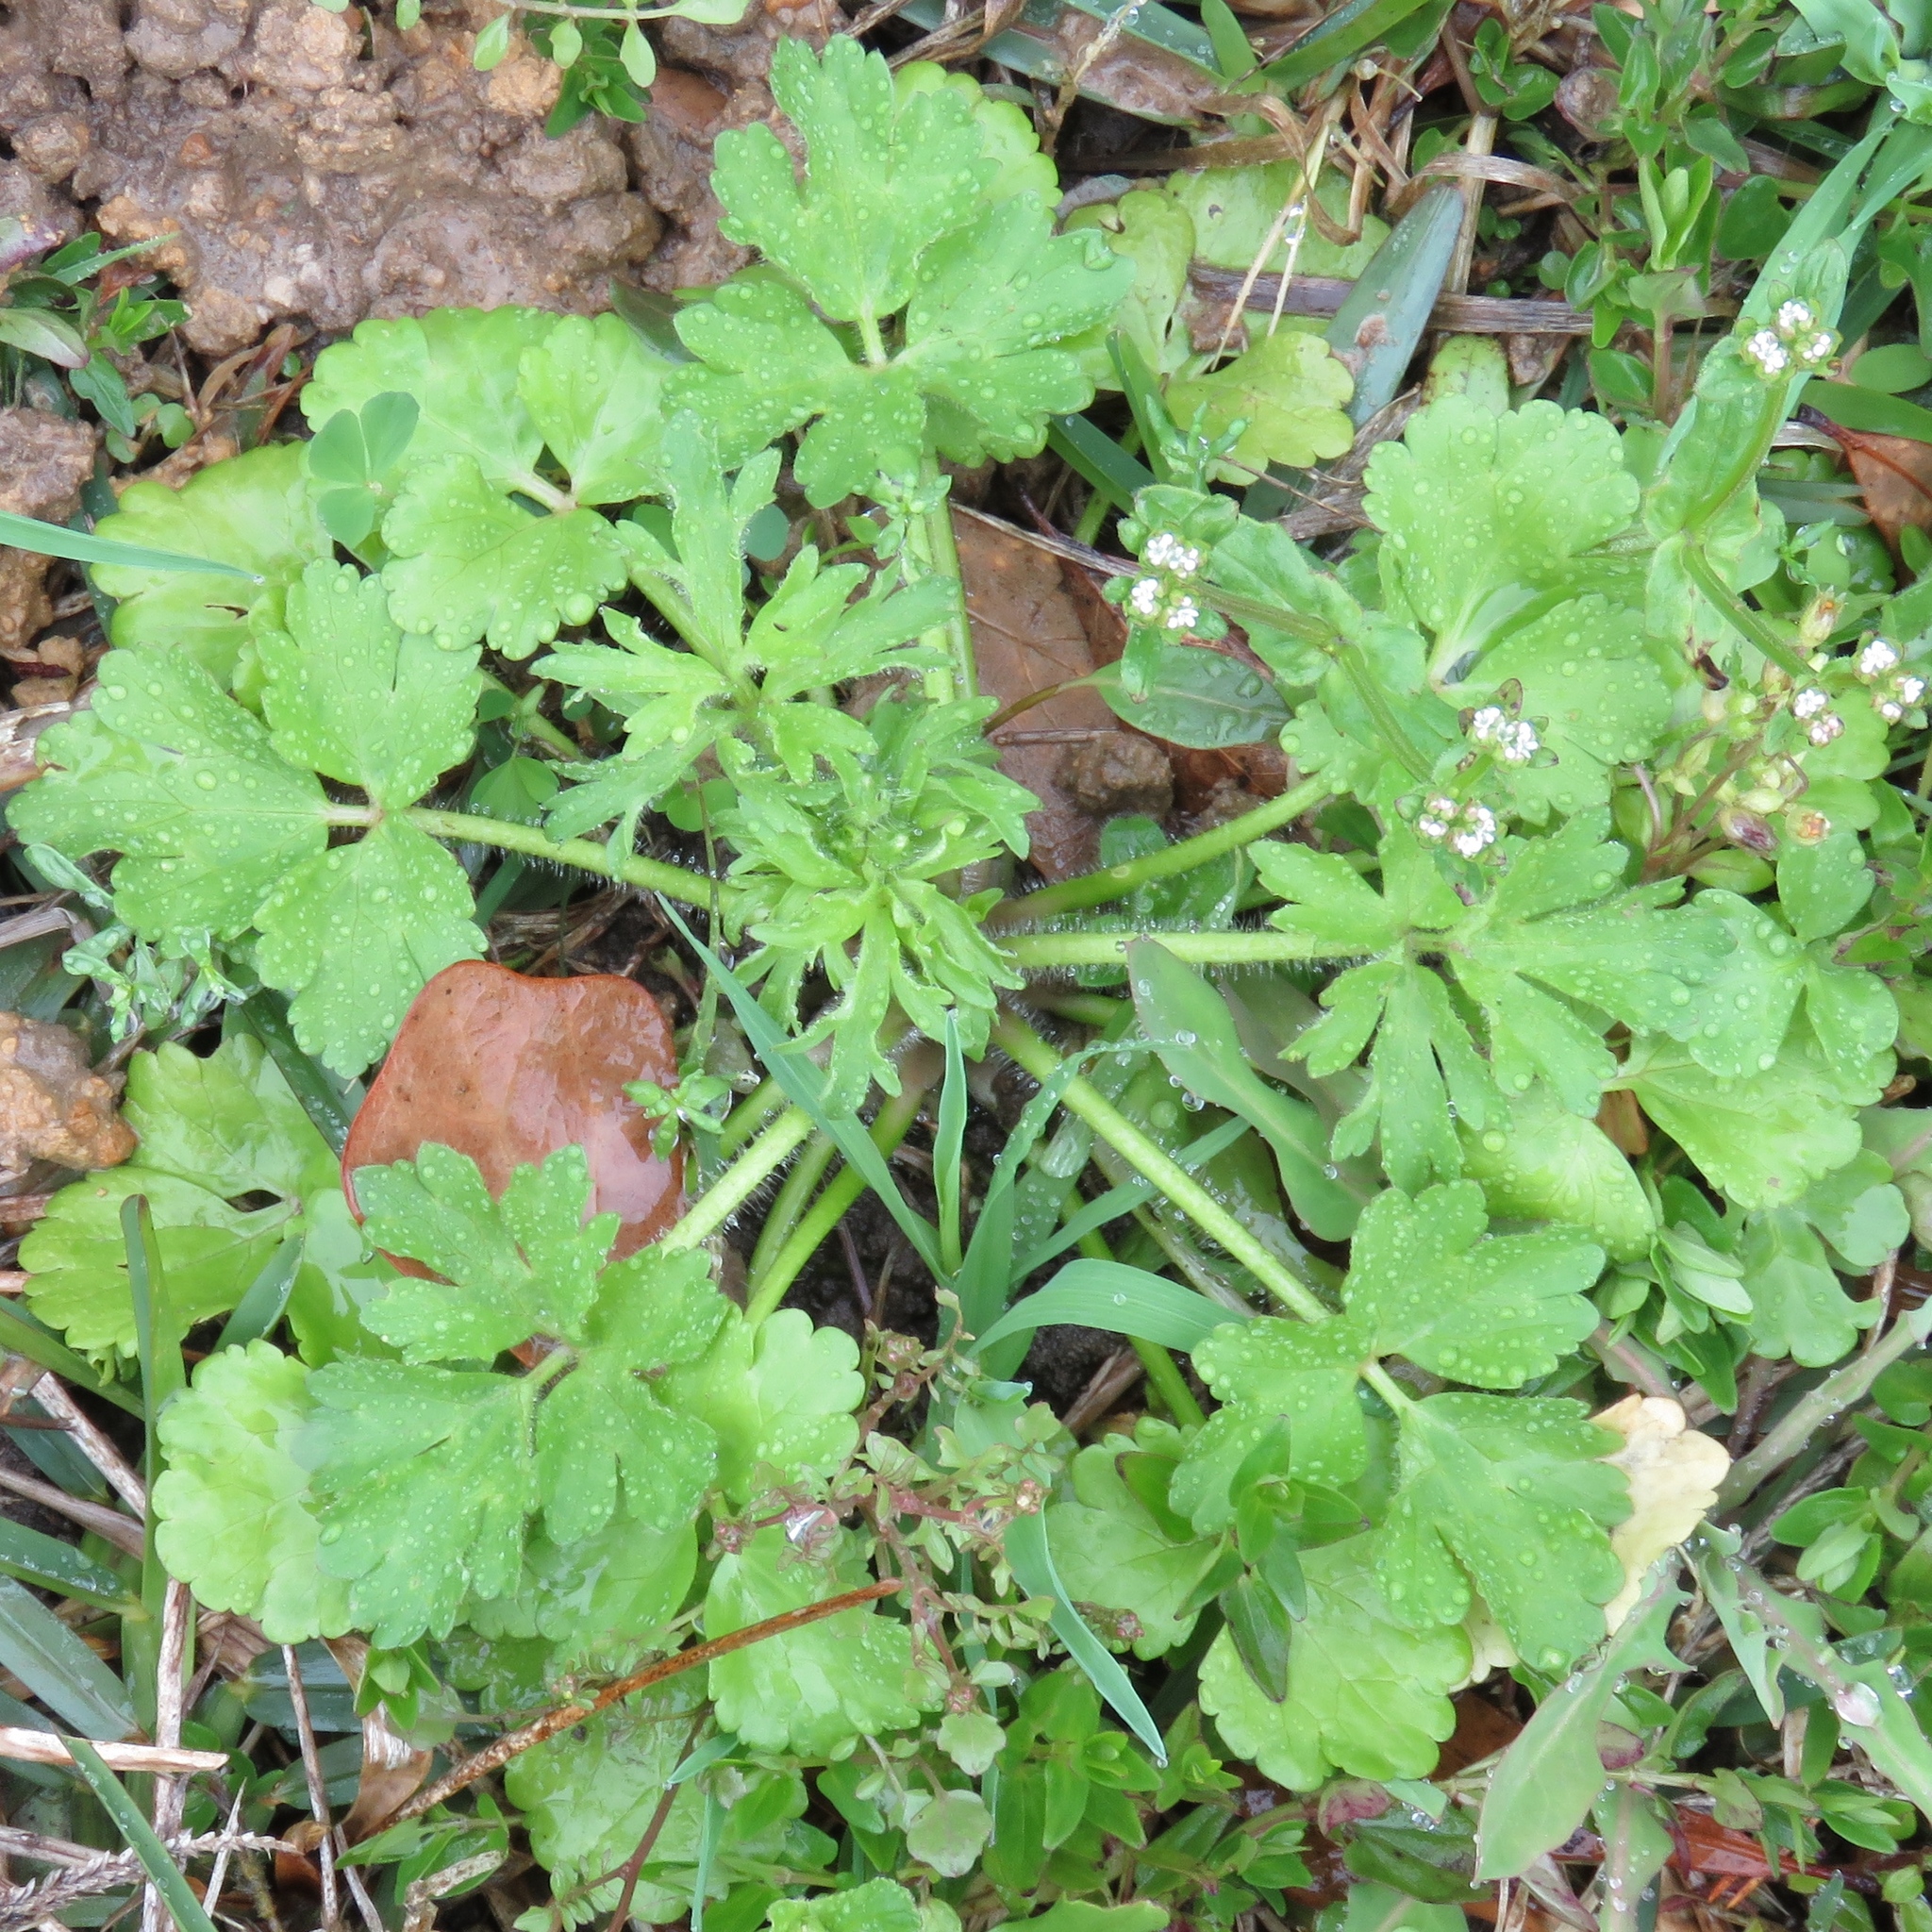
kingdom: Plantae
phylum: Tracheophyta
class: Magnoliopsida
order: Ranunculales
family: Ranunculaceae
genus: Ranunculus
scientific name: Ranunculus sardous
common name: Hairy buttercup
